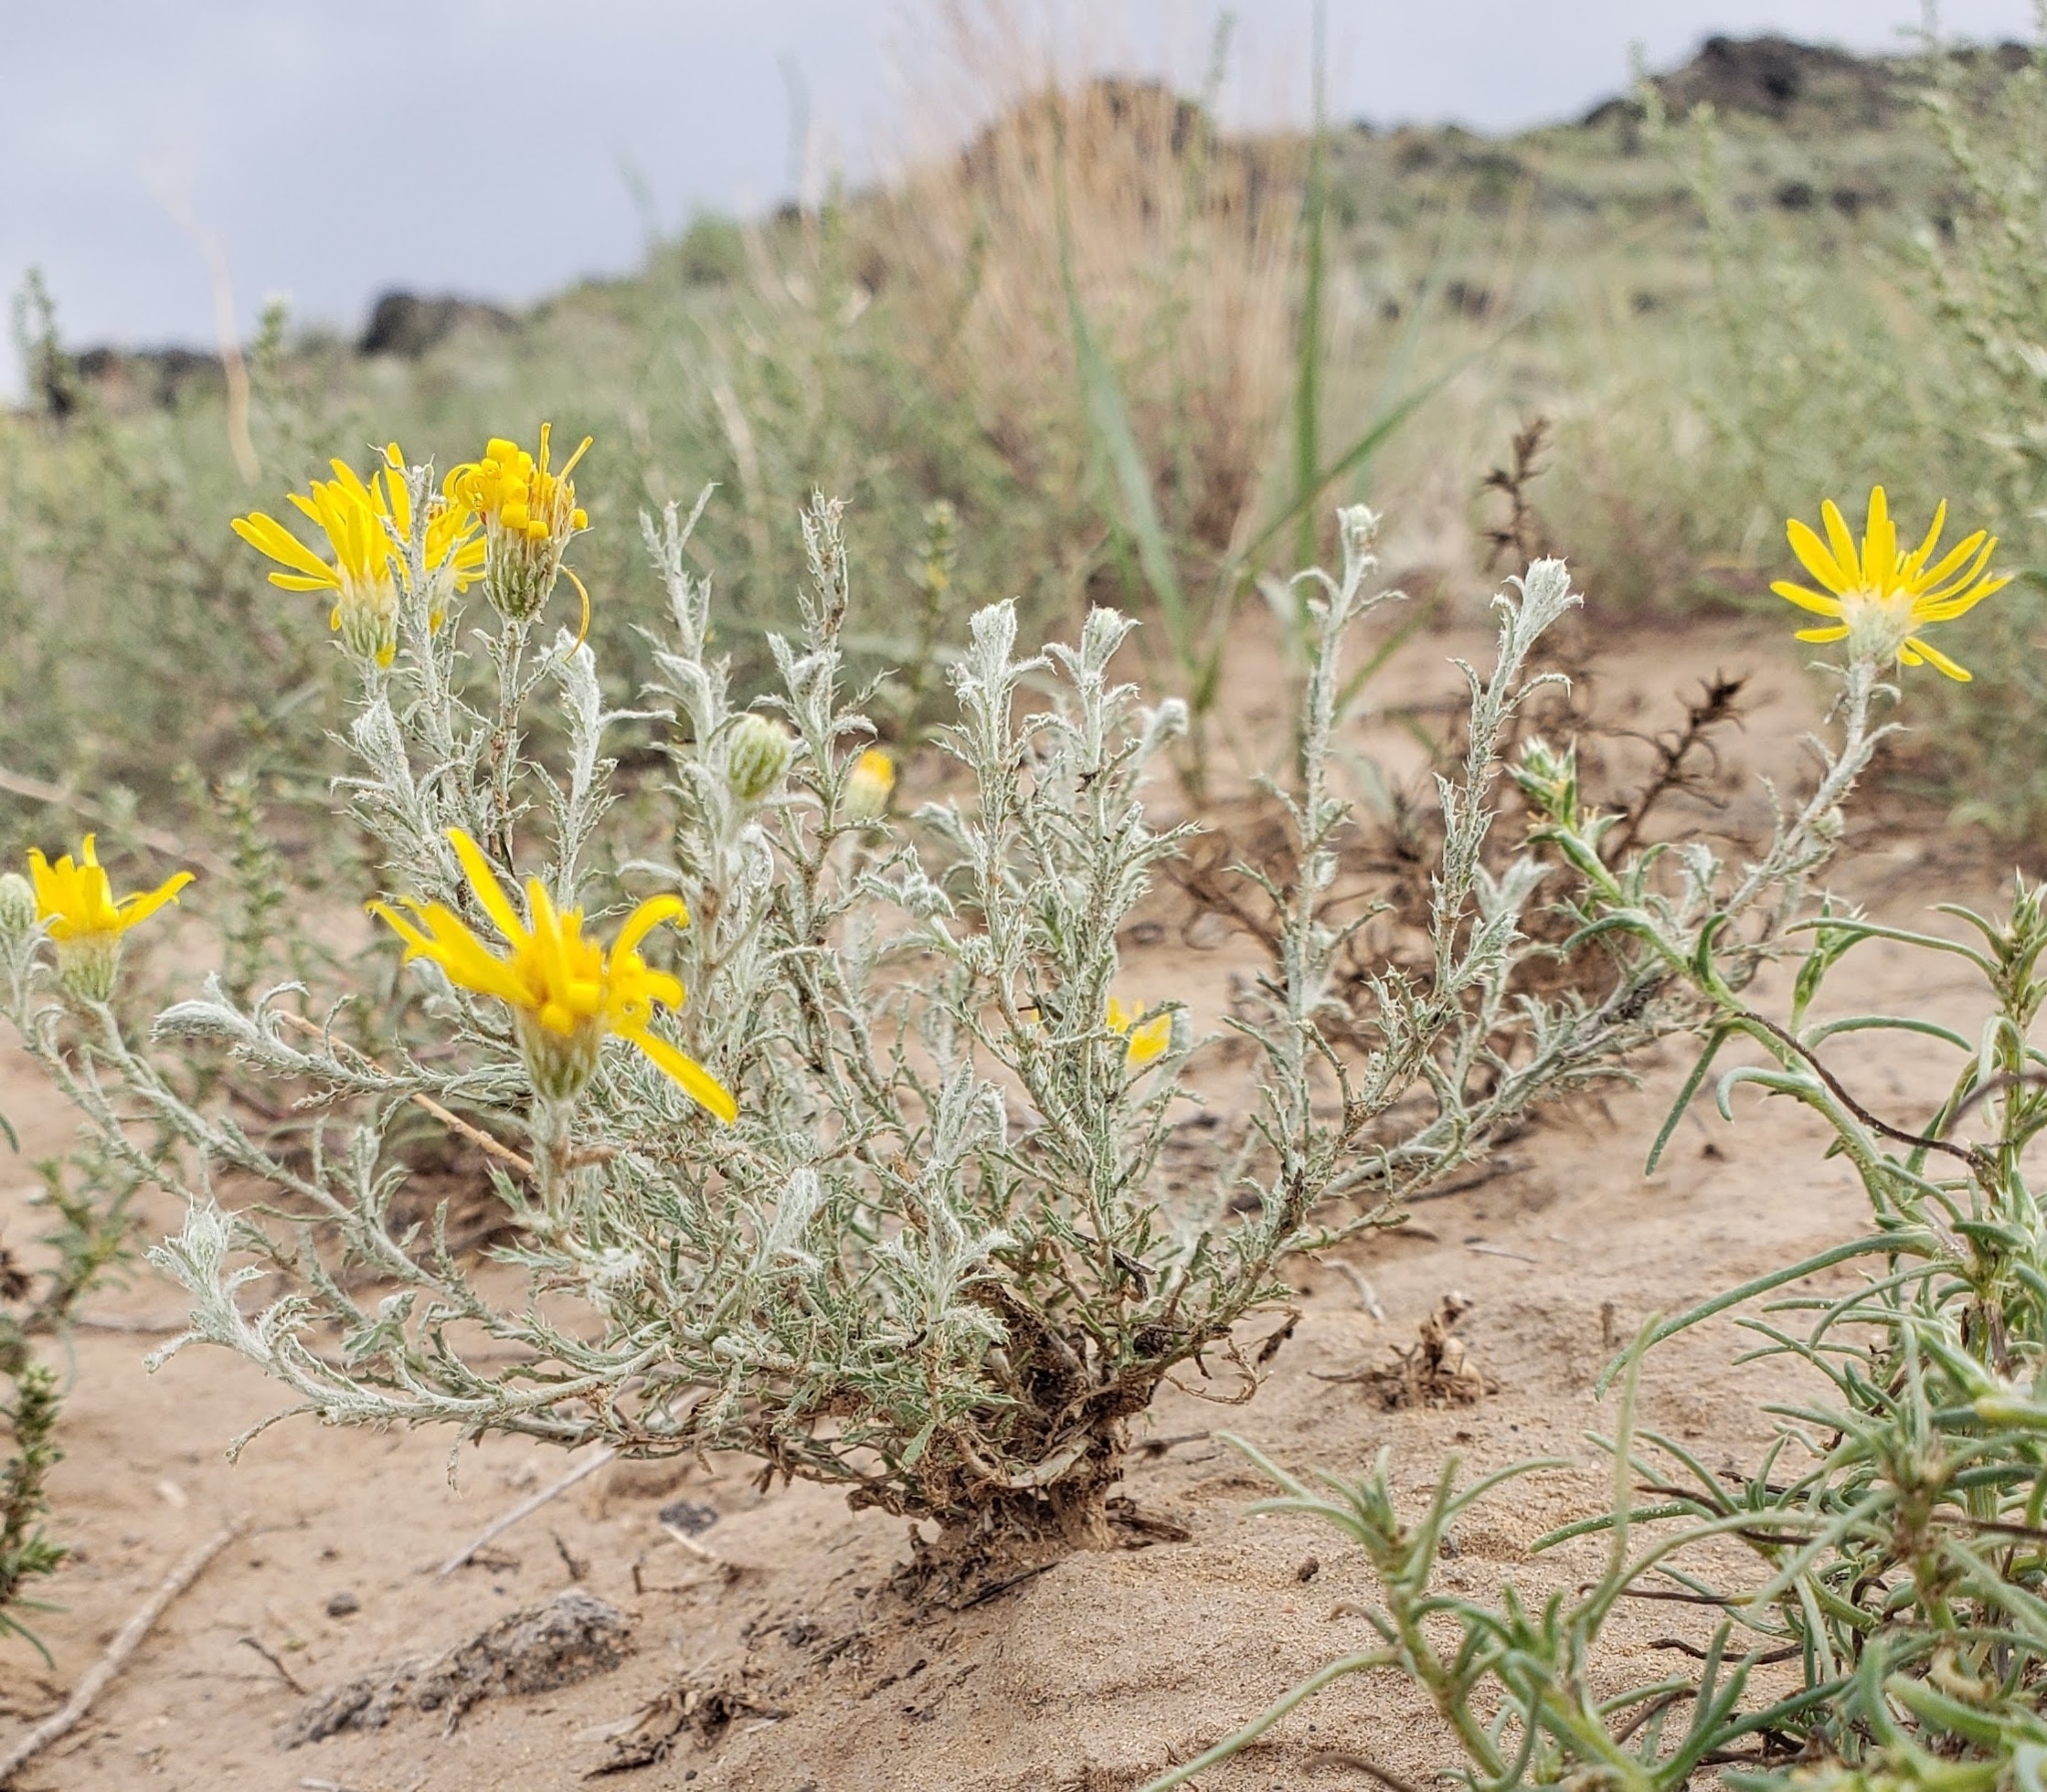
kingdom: Plantae
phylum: Tracheophyta
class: Magnoliopsida
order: Asterales
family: Asteraceae
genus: Xanthisma
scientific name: Xanthisma spinulosum
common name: Spiny goldenweed
